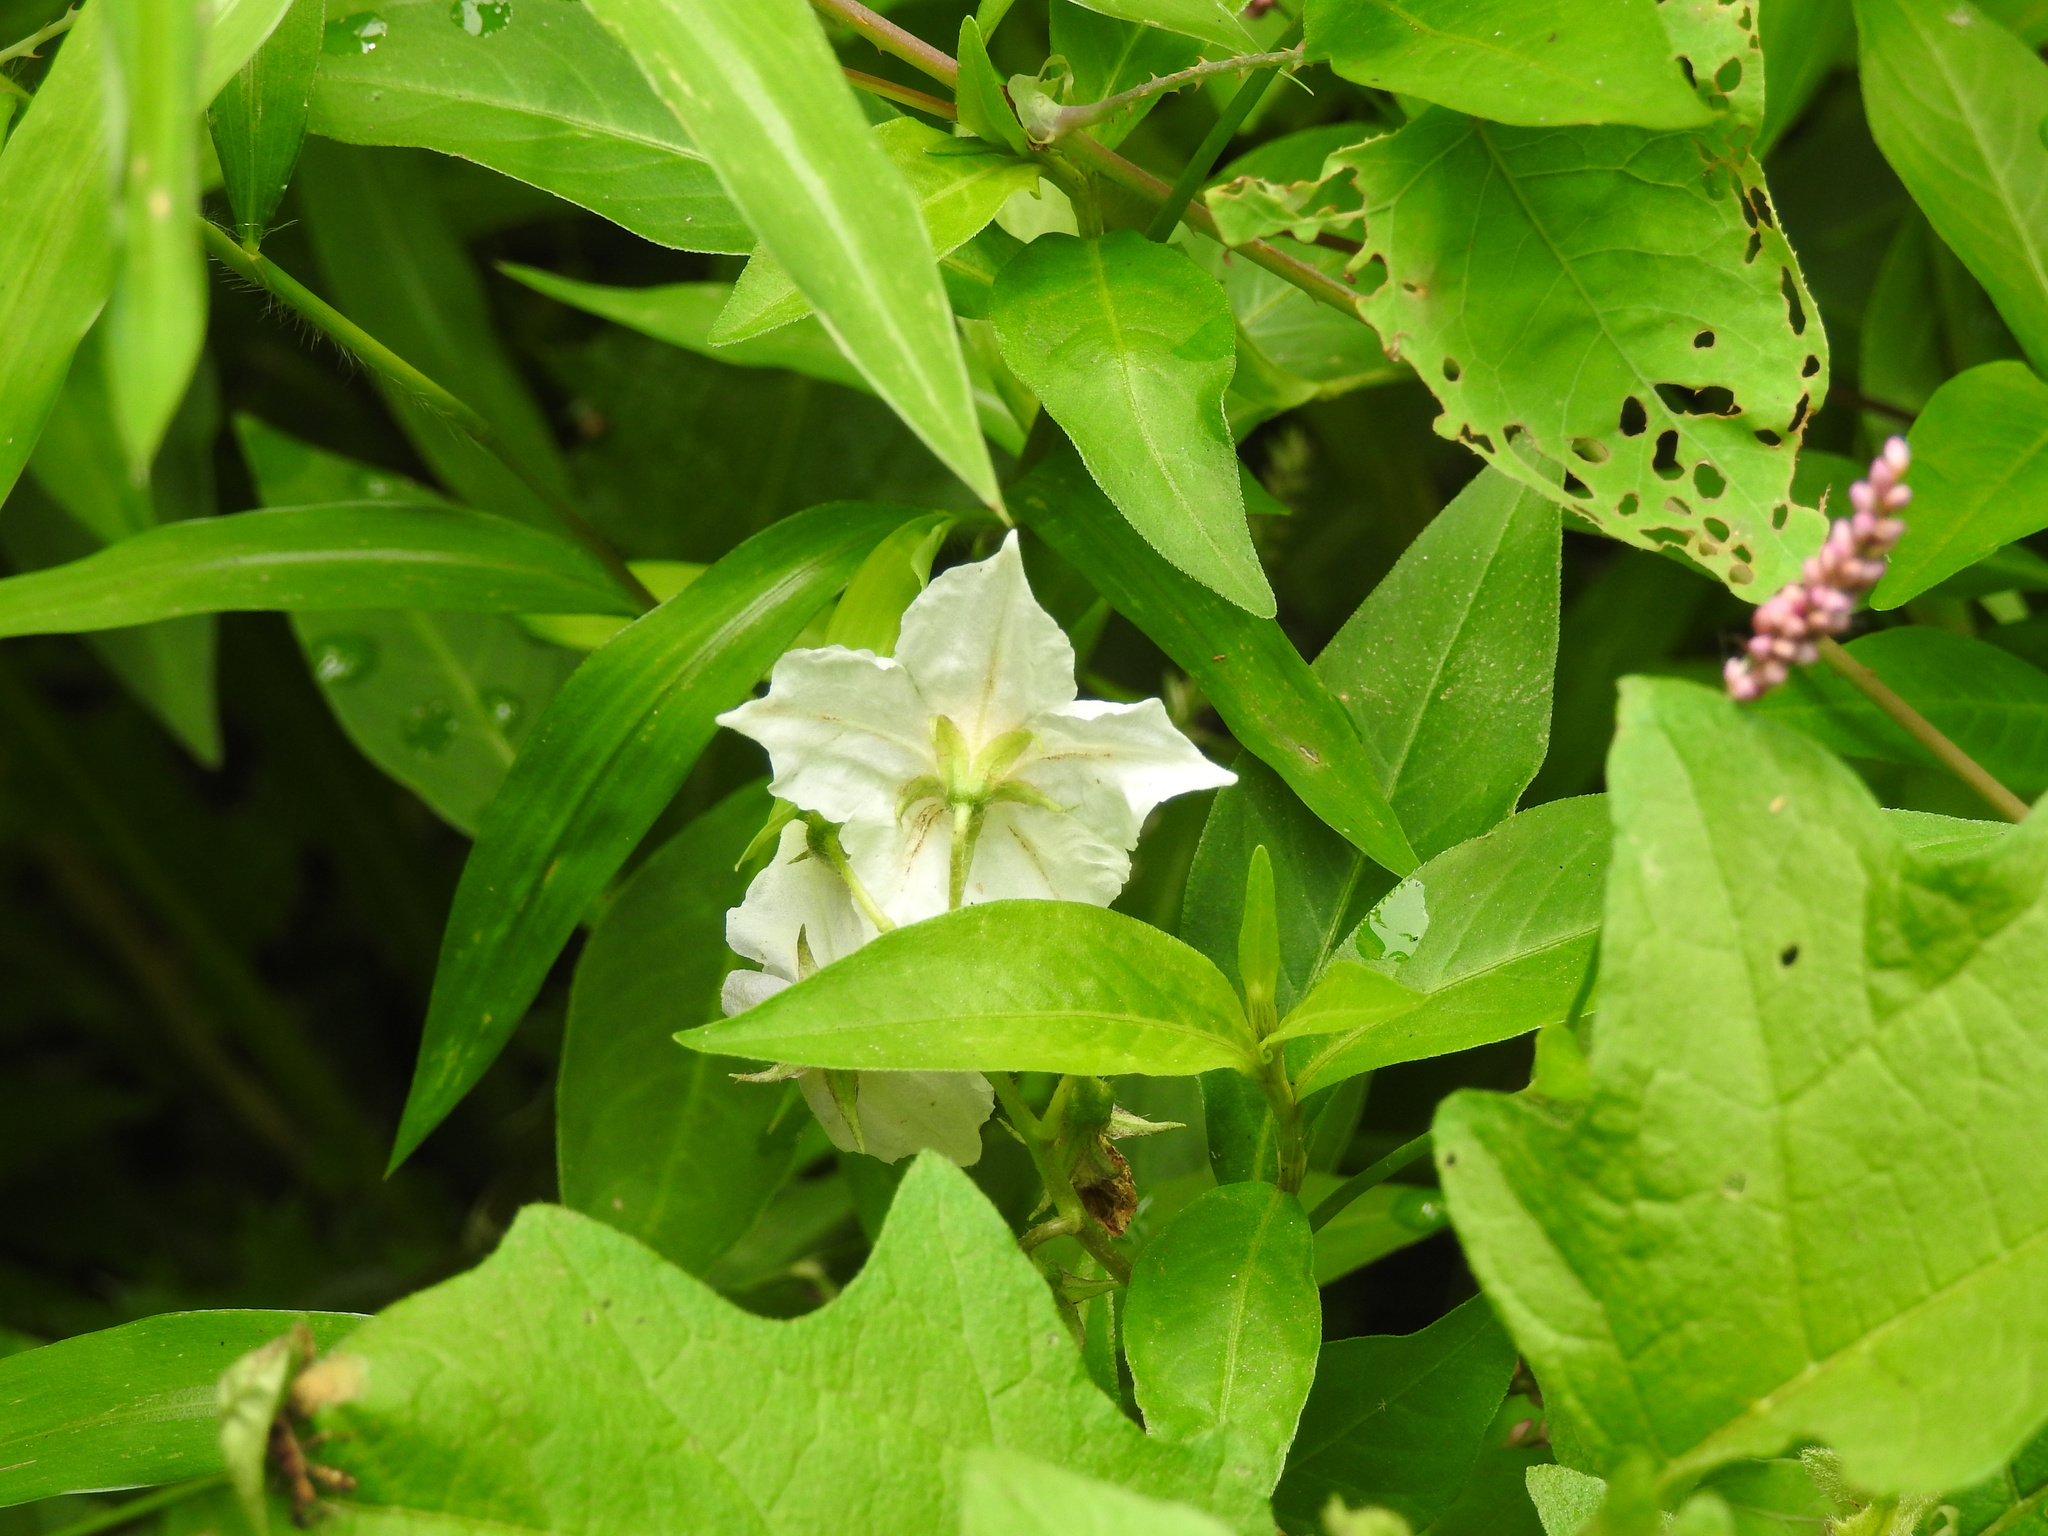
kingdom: Plantae
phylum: Tracheophyta
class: Magnoliopsida
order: Solanales
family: Solanaceae
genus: Solanum
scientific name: Solanum carolinense
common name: Horse-nettle
